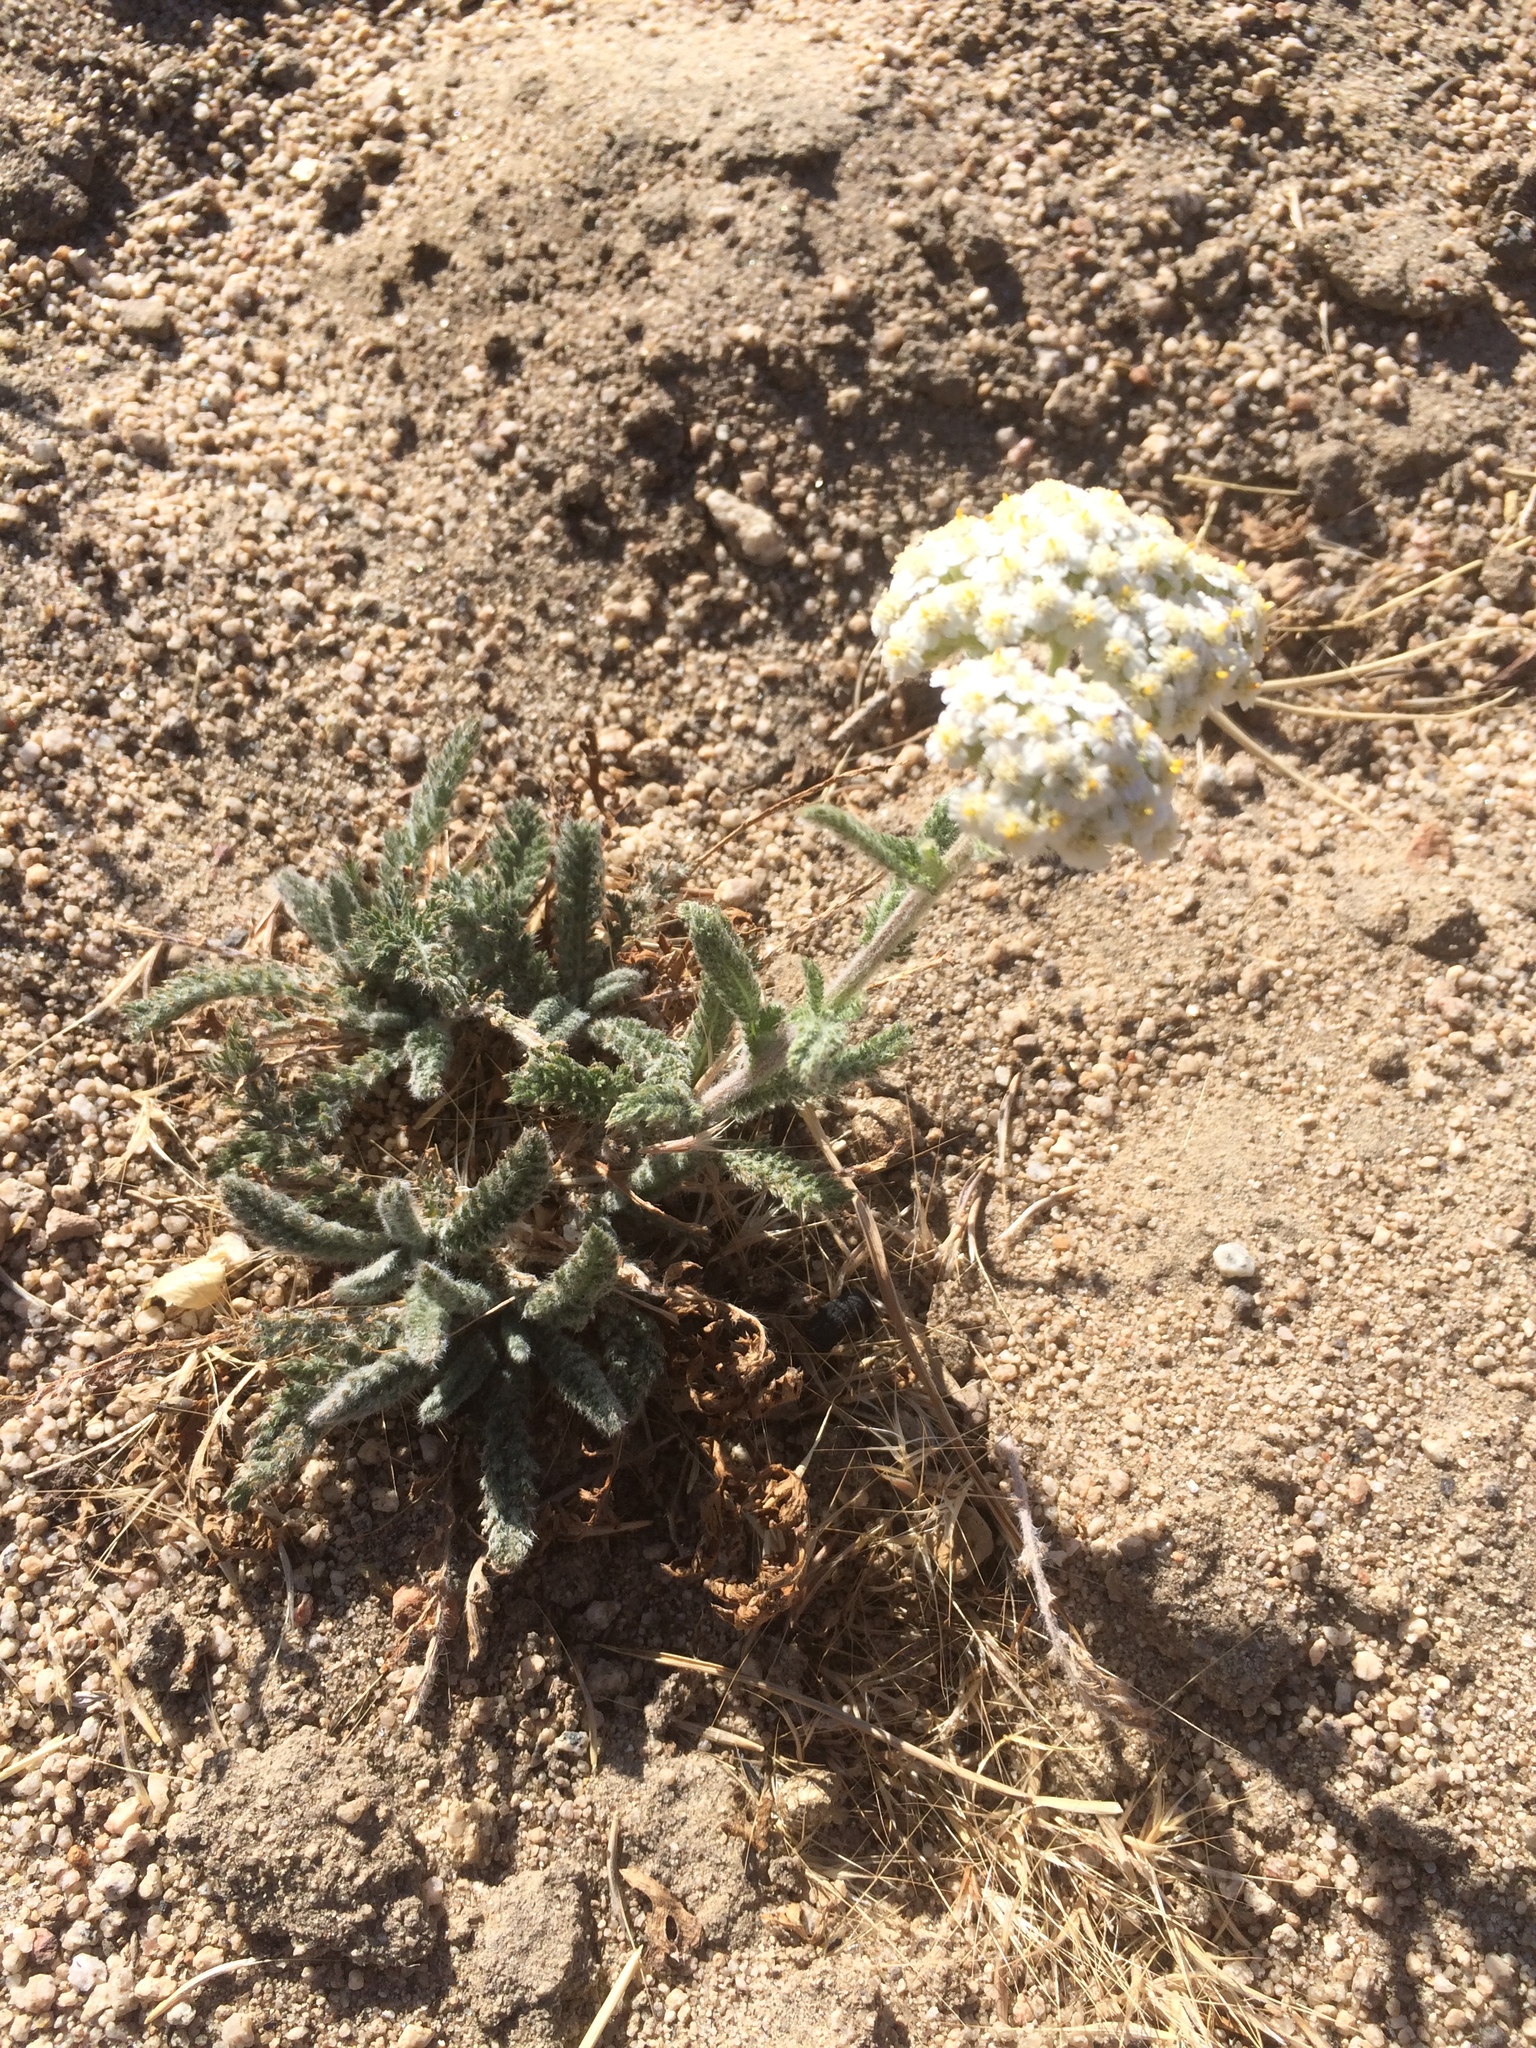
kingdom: Plantae
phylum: Tracheophyta
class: Magnoliopsida
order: Asterales
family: Asteraceae
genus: Achillea
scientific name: Achillea millefolium
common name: Yarrow
